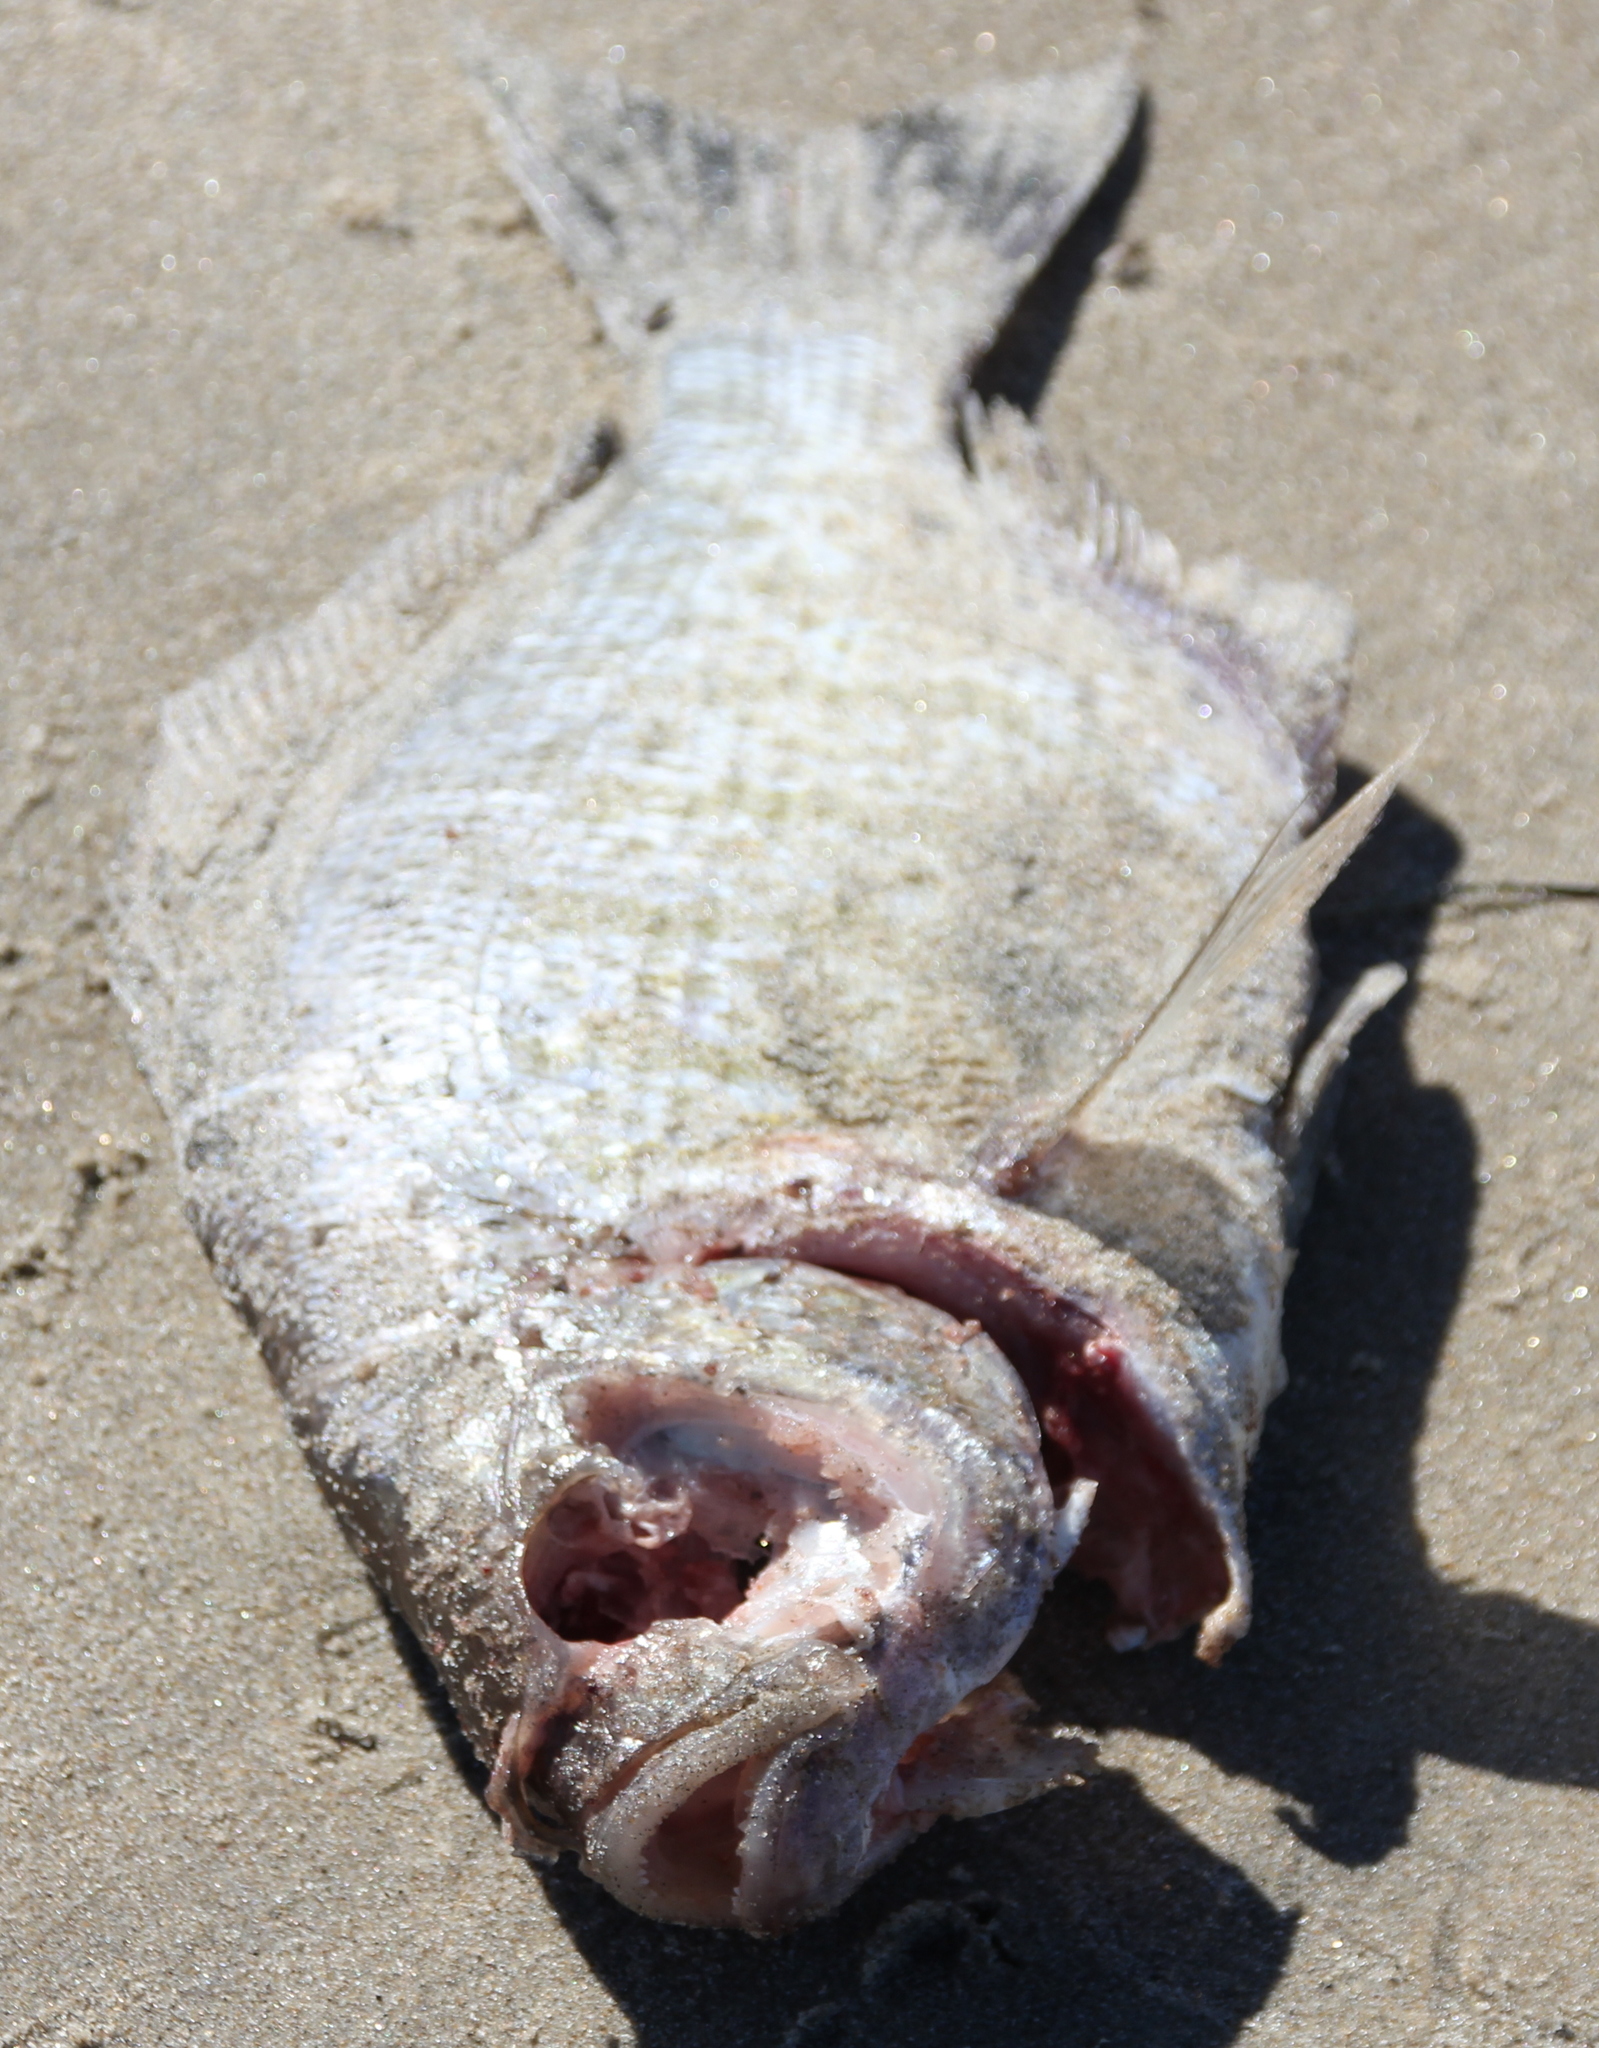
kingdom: Animalia
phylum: Chordata
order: Perciformes
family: Embiotocidae
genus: Amphistichus
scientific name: Amphistichus argenteus
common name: Barred surfperch
